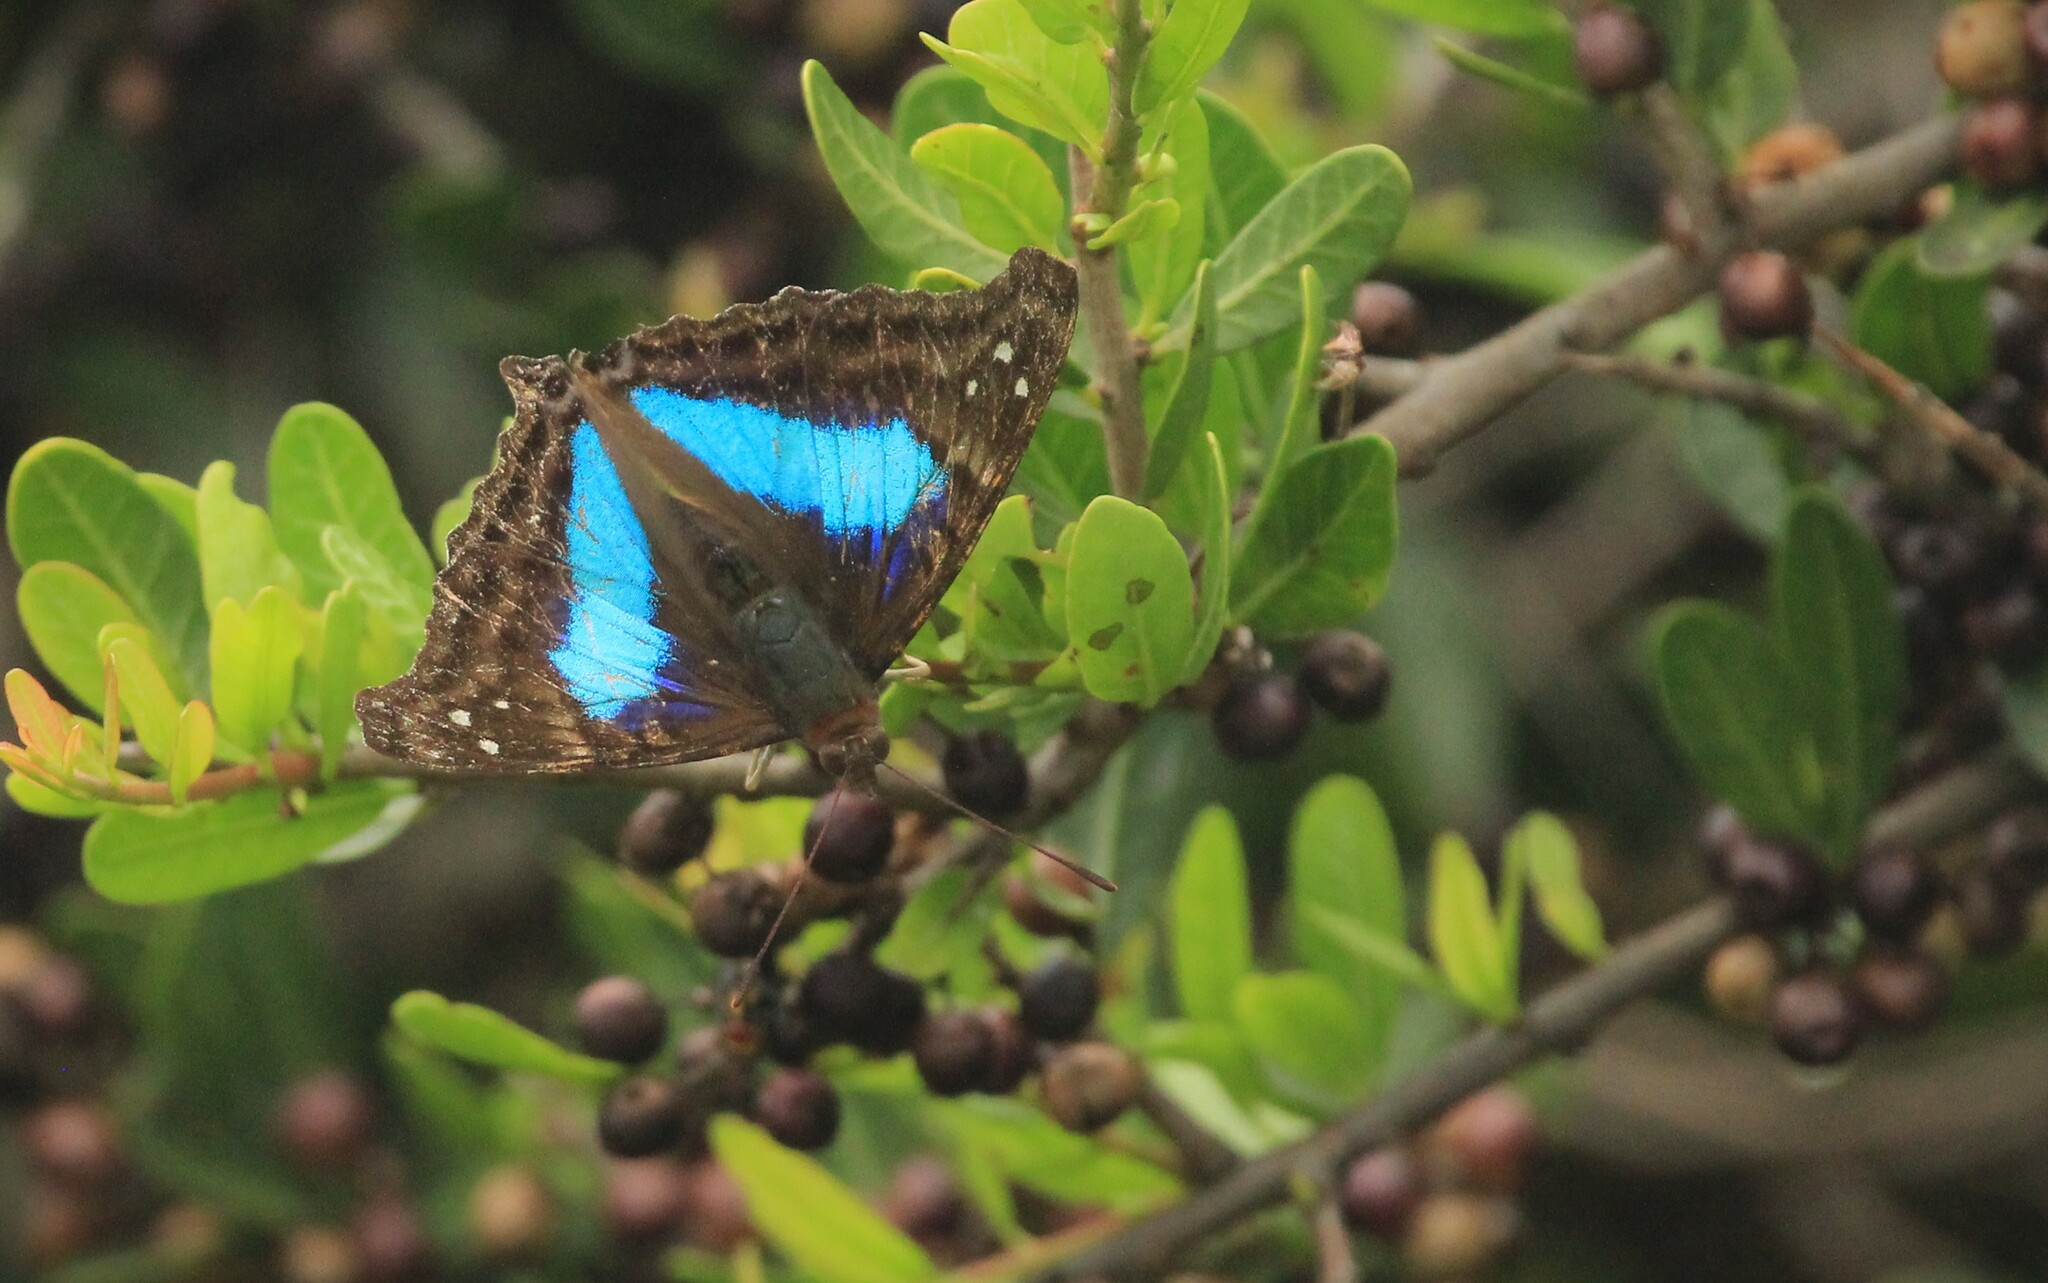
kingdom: Animalia
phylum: Arthropoda
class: Insecta
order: Lepidoptera
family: Nymphalidae
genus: Doxocopa
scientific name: Doxocopa laurentia
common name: Turquoise emperor
